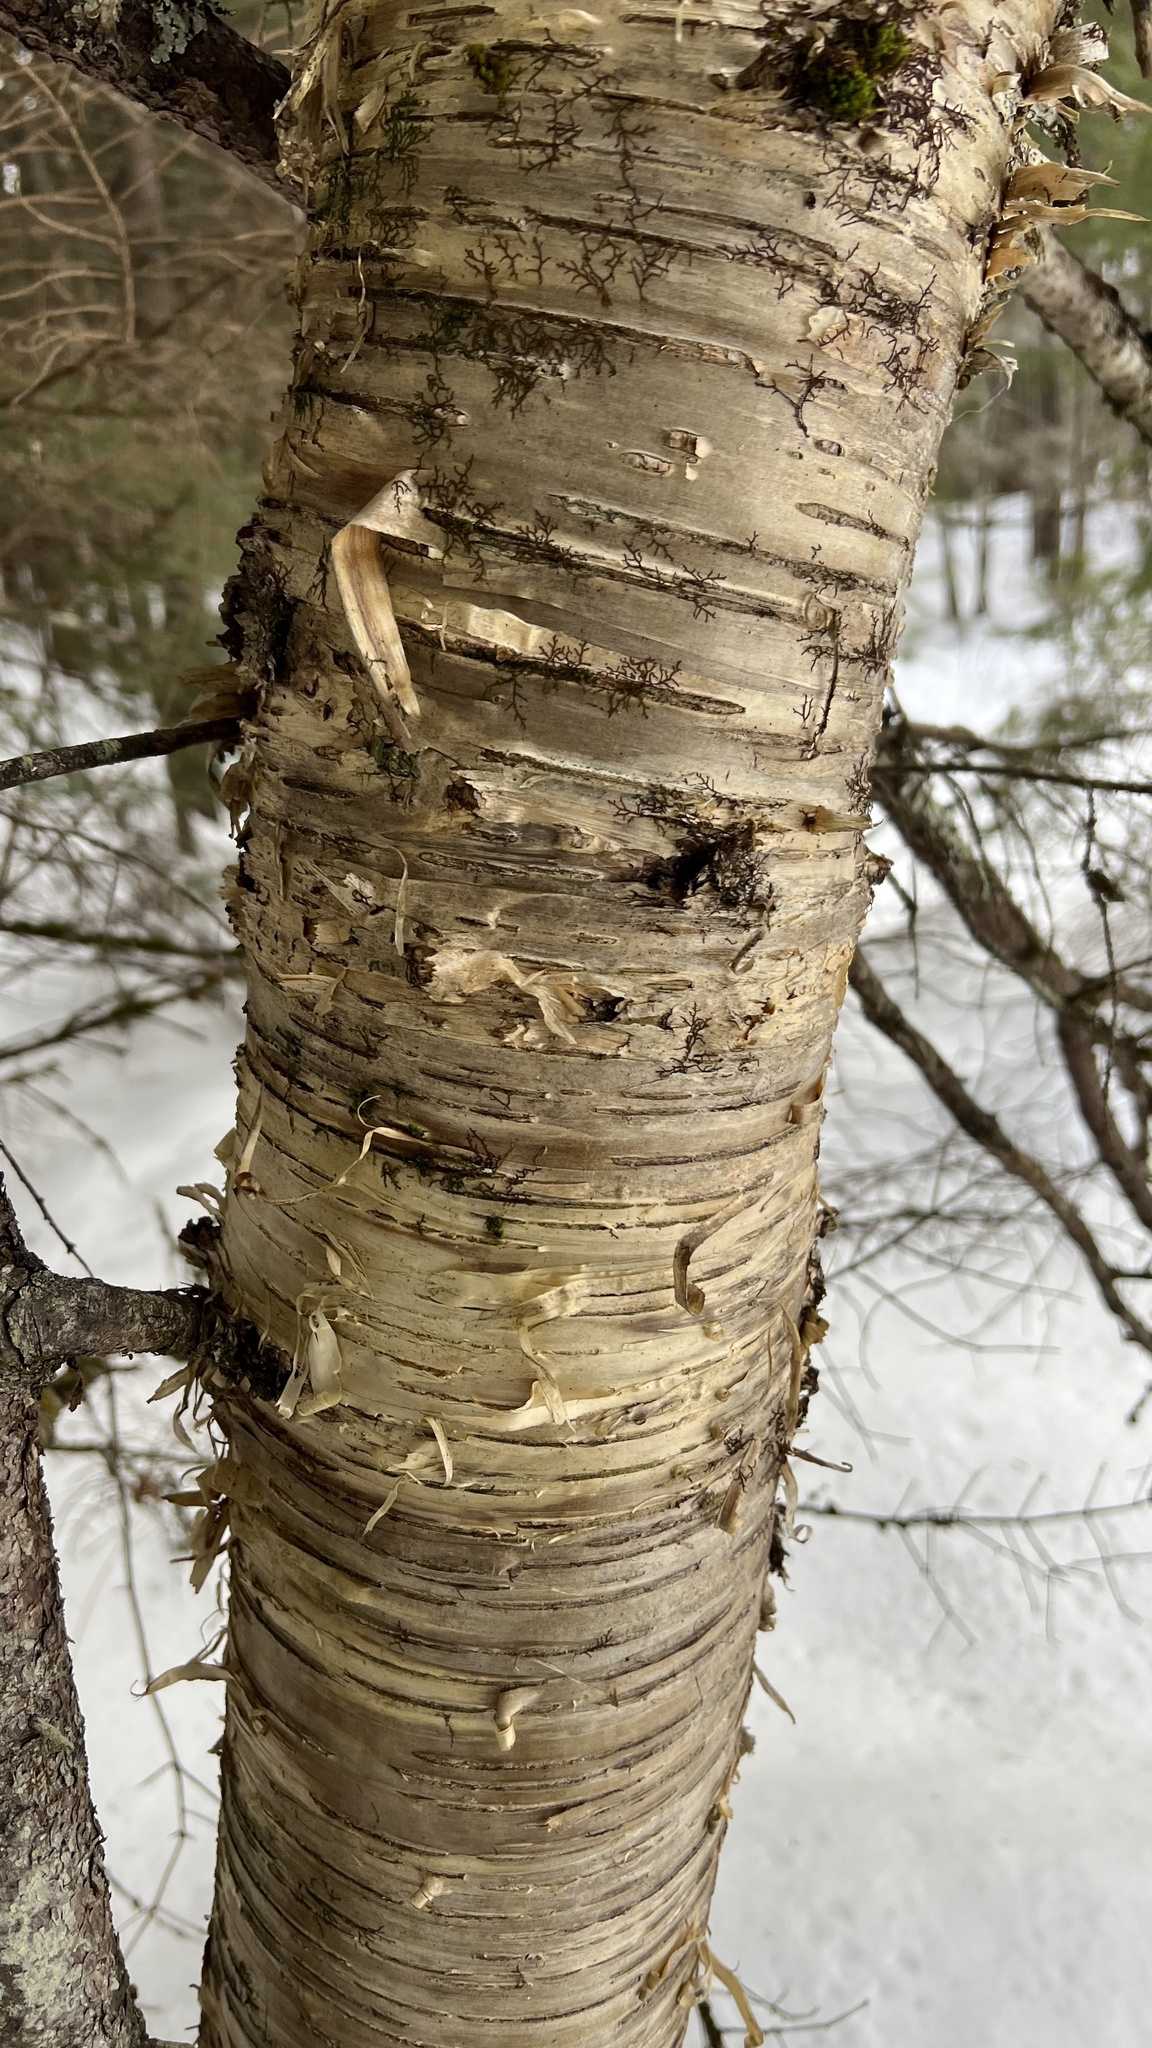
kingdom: Plantae
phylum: Tracheophyta
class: Magnoliopsida
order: Fagales
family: Betulaceae
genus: Betula
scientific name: Betula alleghaniensis
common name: Yellow birch
